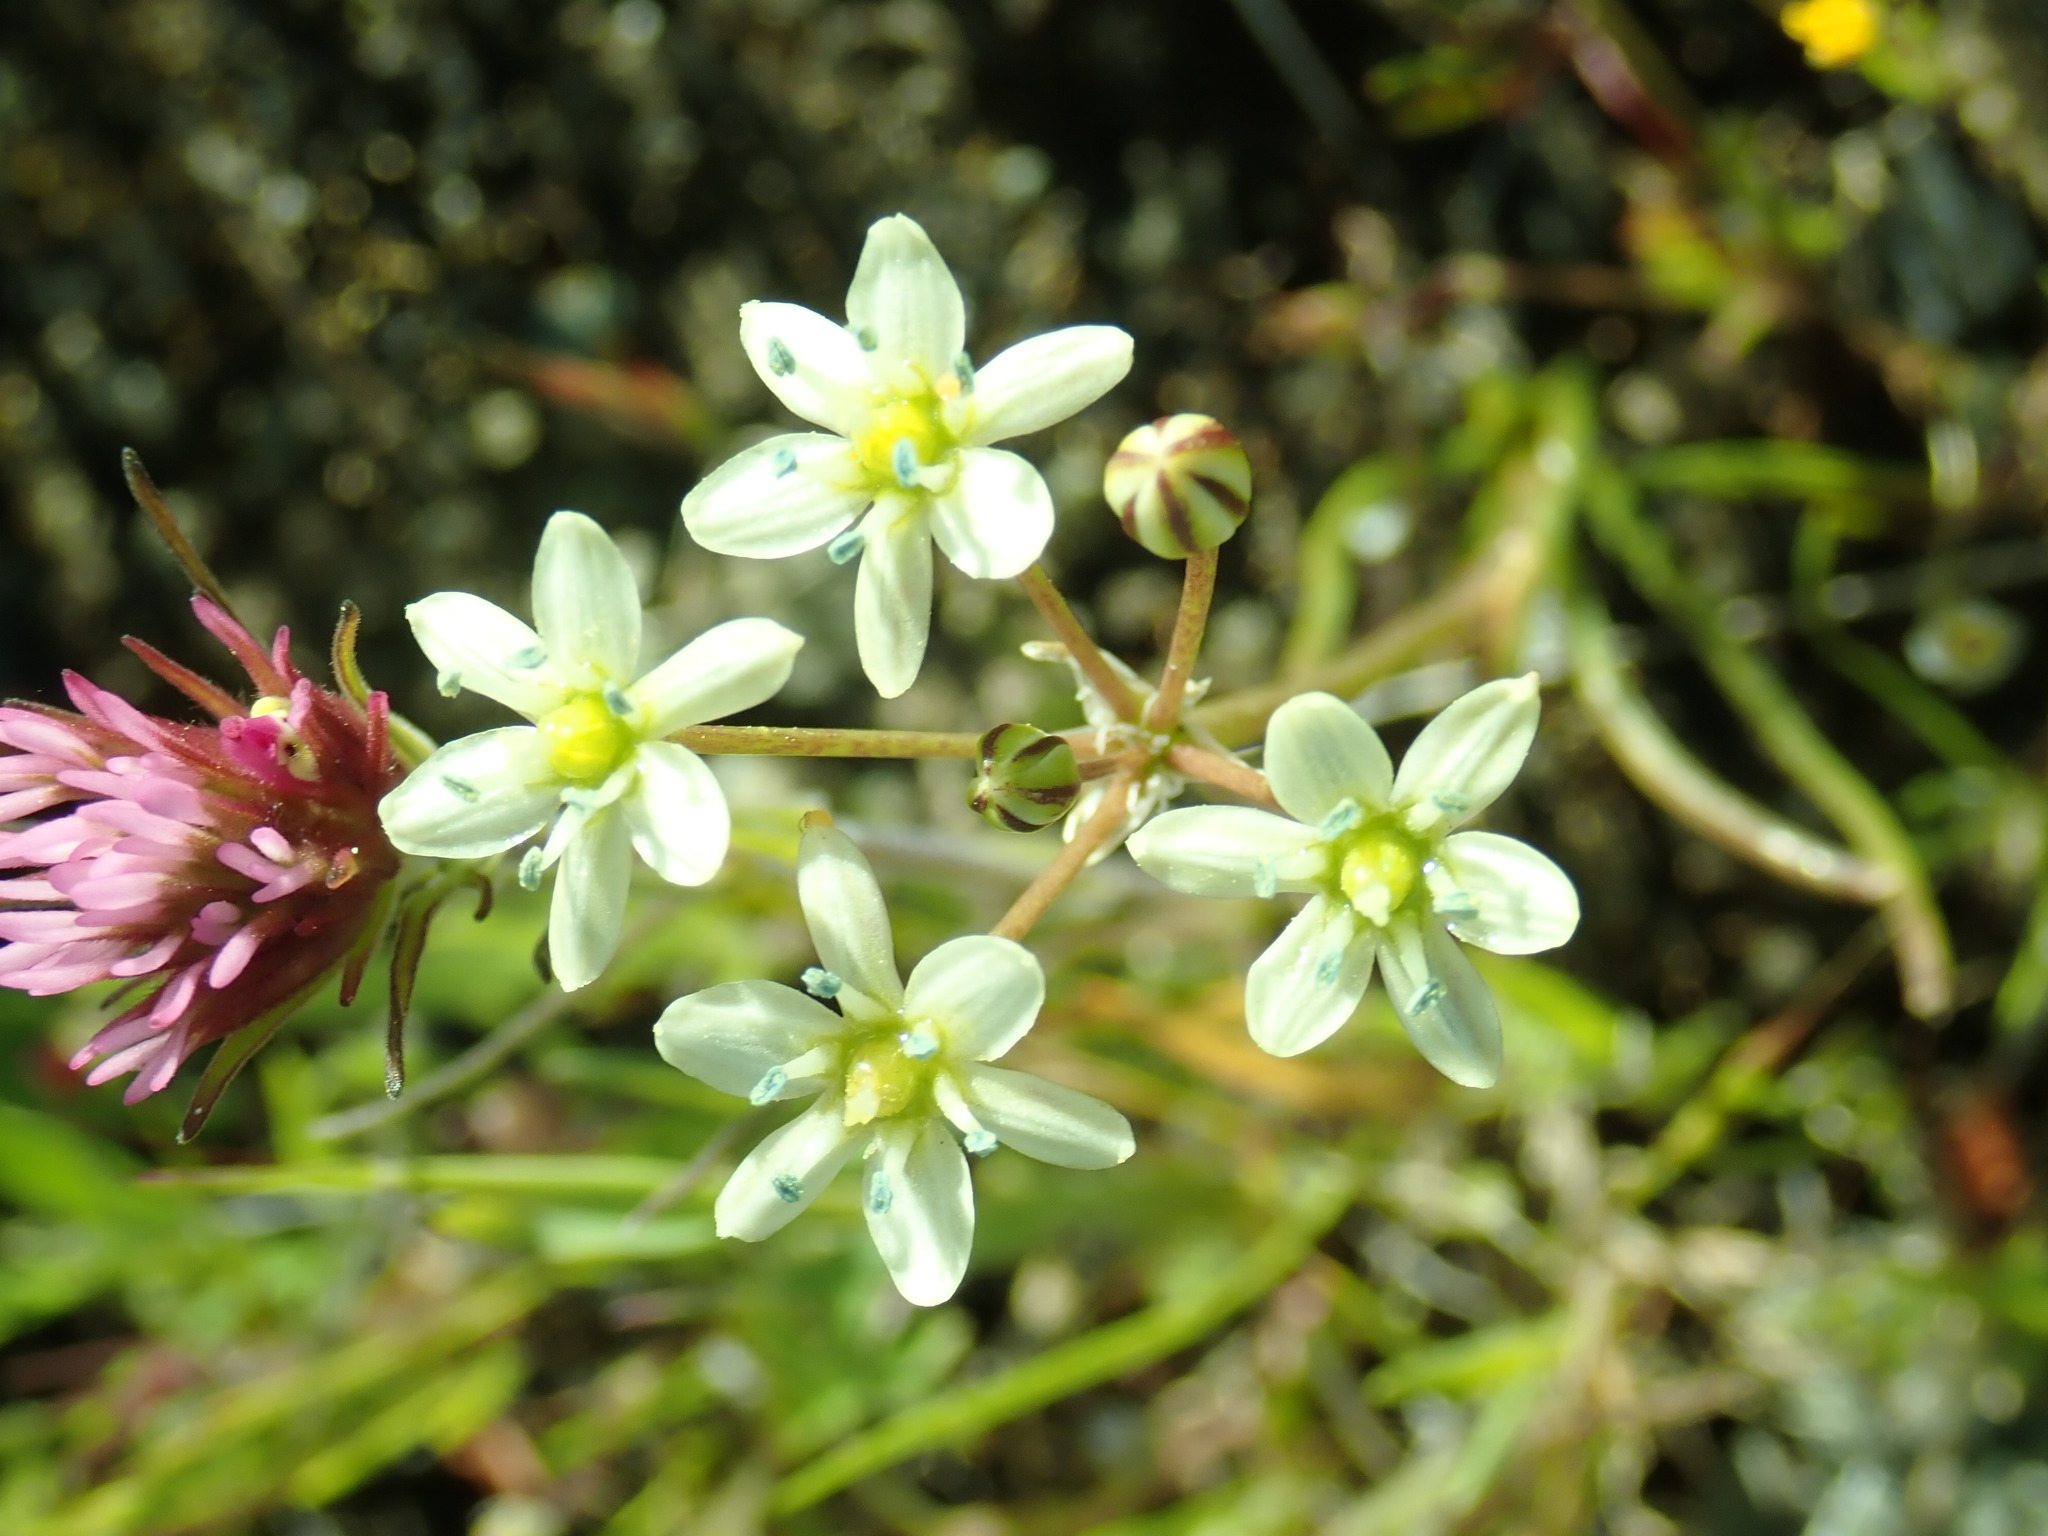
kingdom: Plantae
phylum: Tracheophyta
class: Liliopsida
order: Asparagales
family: Asparagaceae
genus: Muilla
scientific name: Muilla maritima
